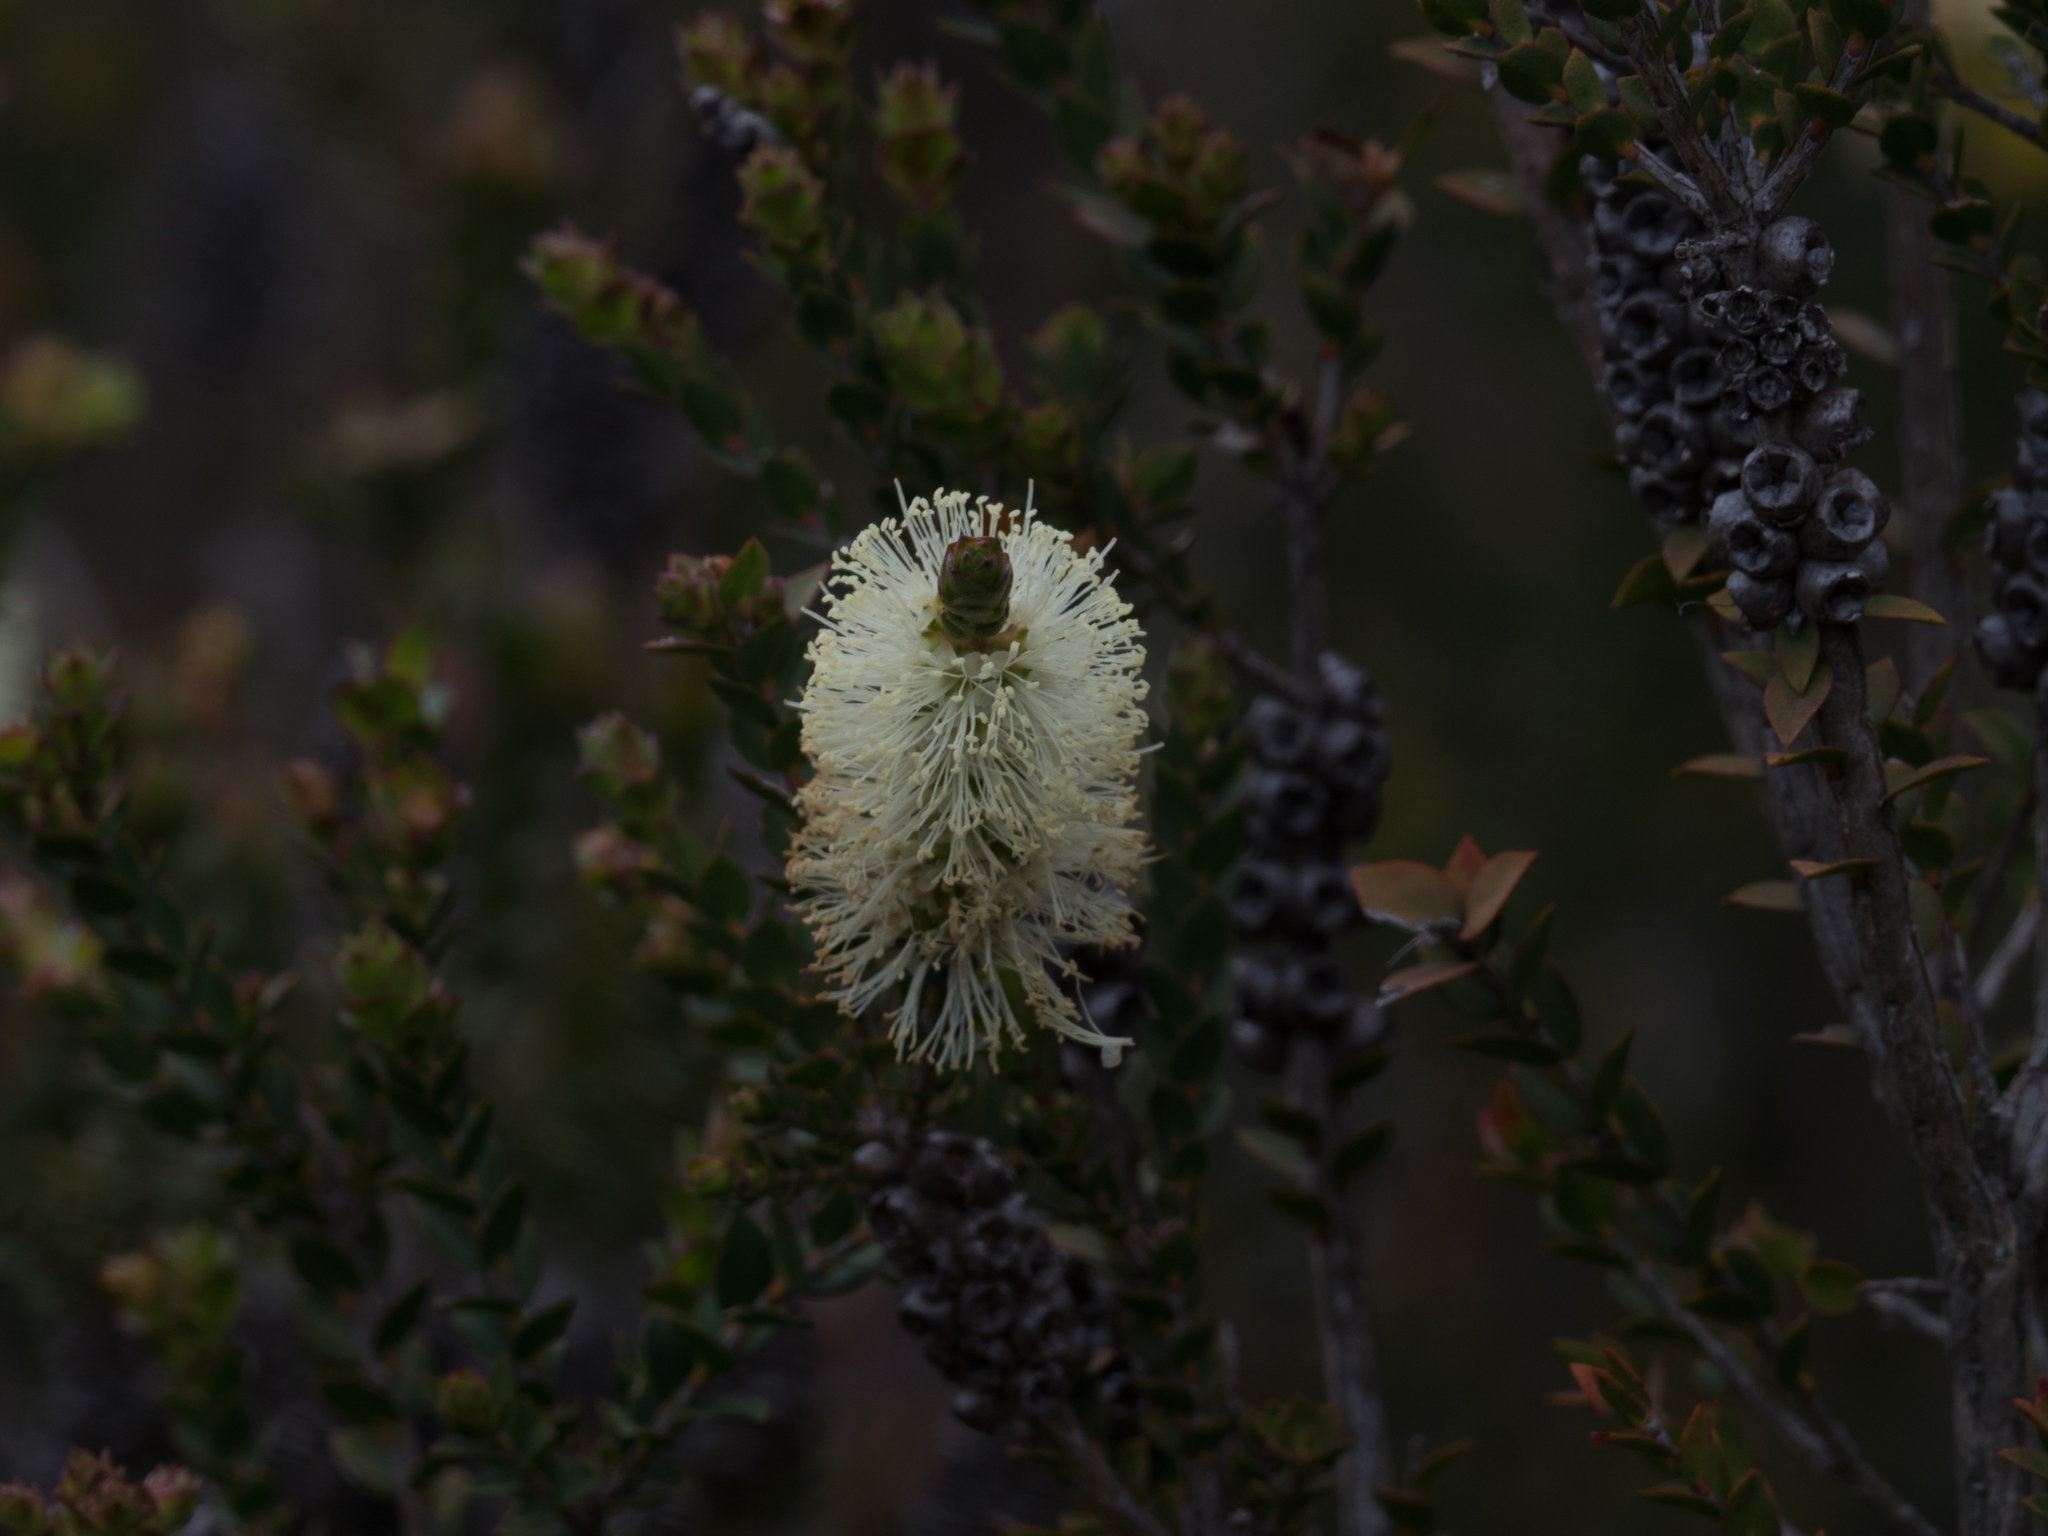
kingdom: Plantae
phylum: Tracheophyta
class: Magnoliopsida
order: Myrtales
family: Myrtaceae
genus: Melaleuca
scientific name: Melaleuca squarrosa
